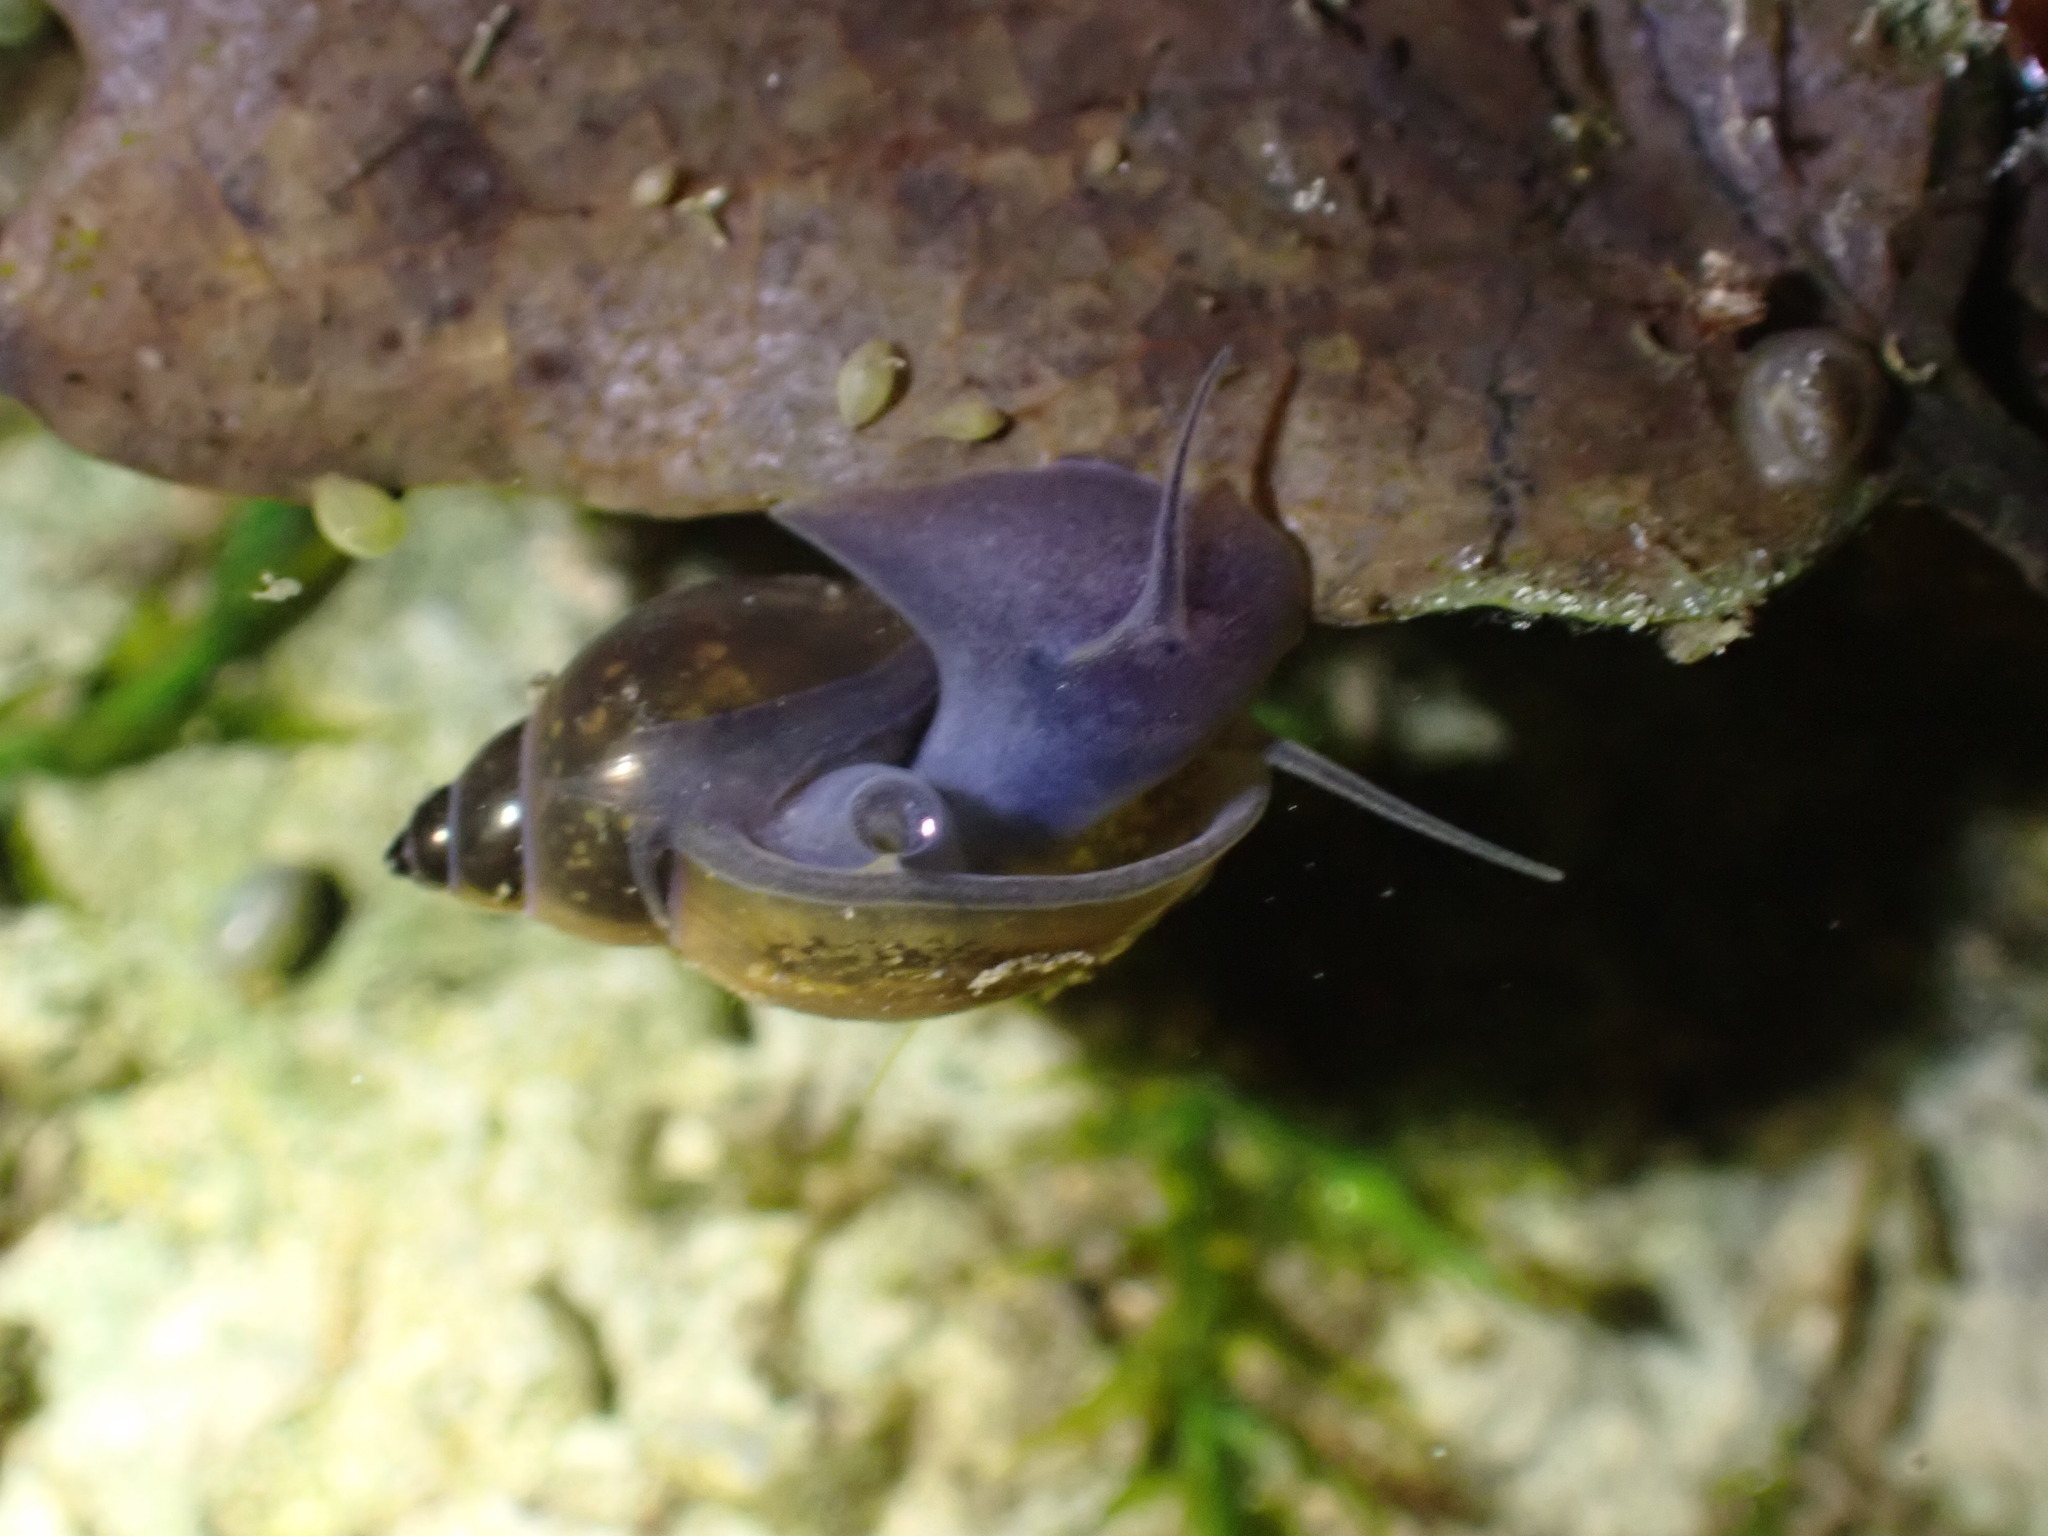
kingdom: Animalia
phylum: Mollusca
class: Gastropoda
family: Physidae
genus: Physella
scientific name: Physella acuta
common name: European physa
